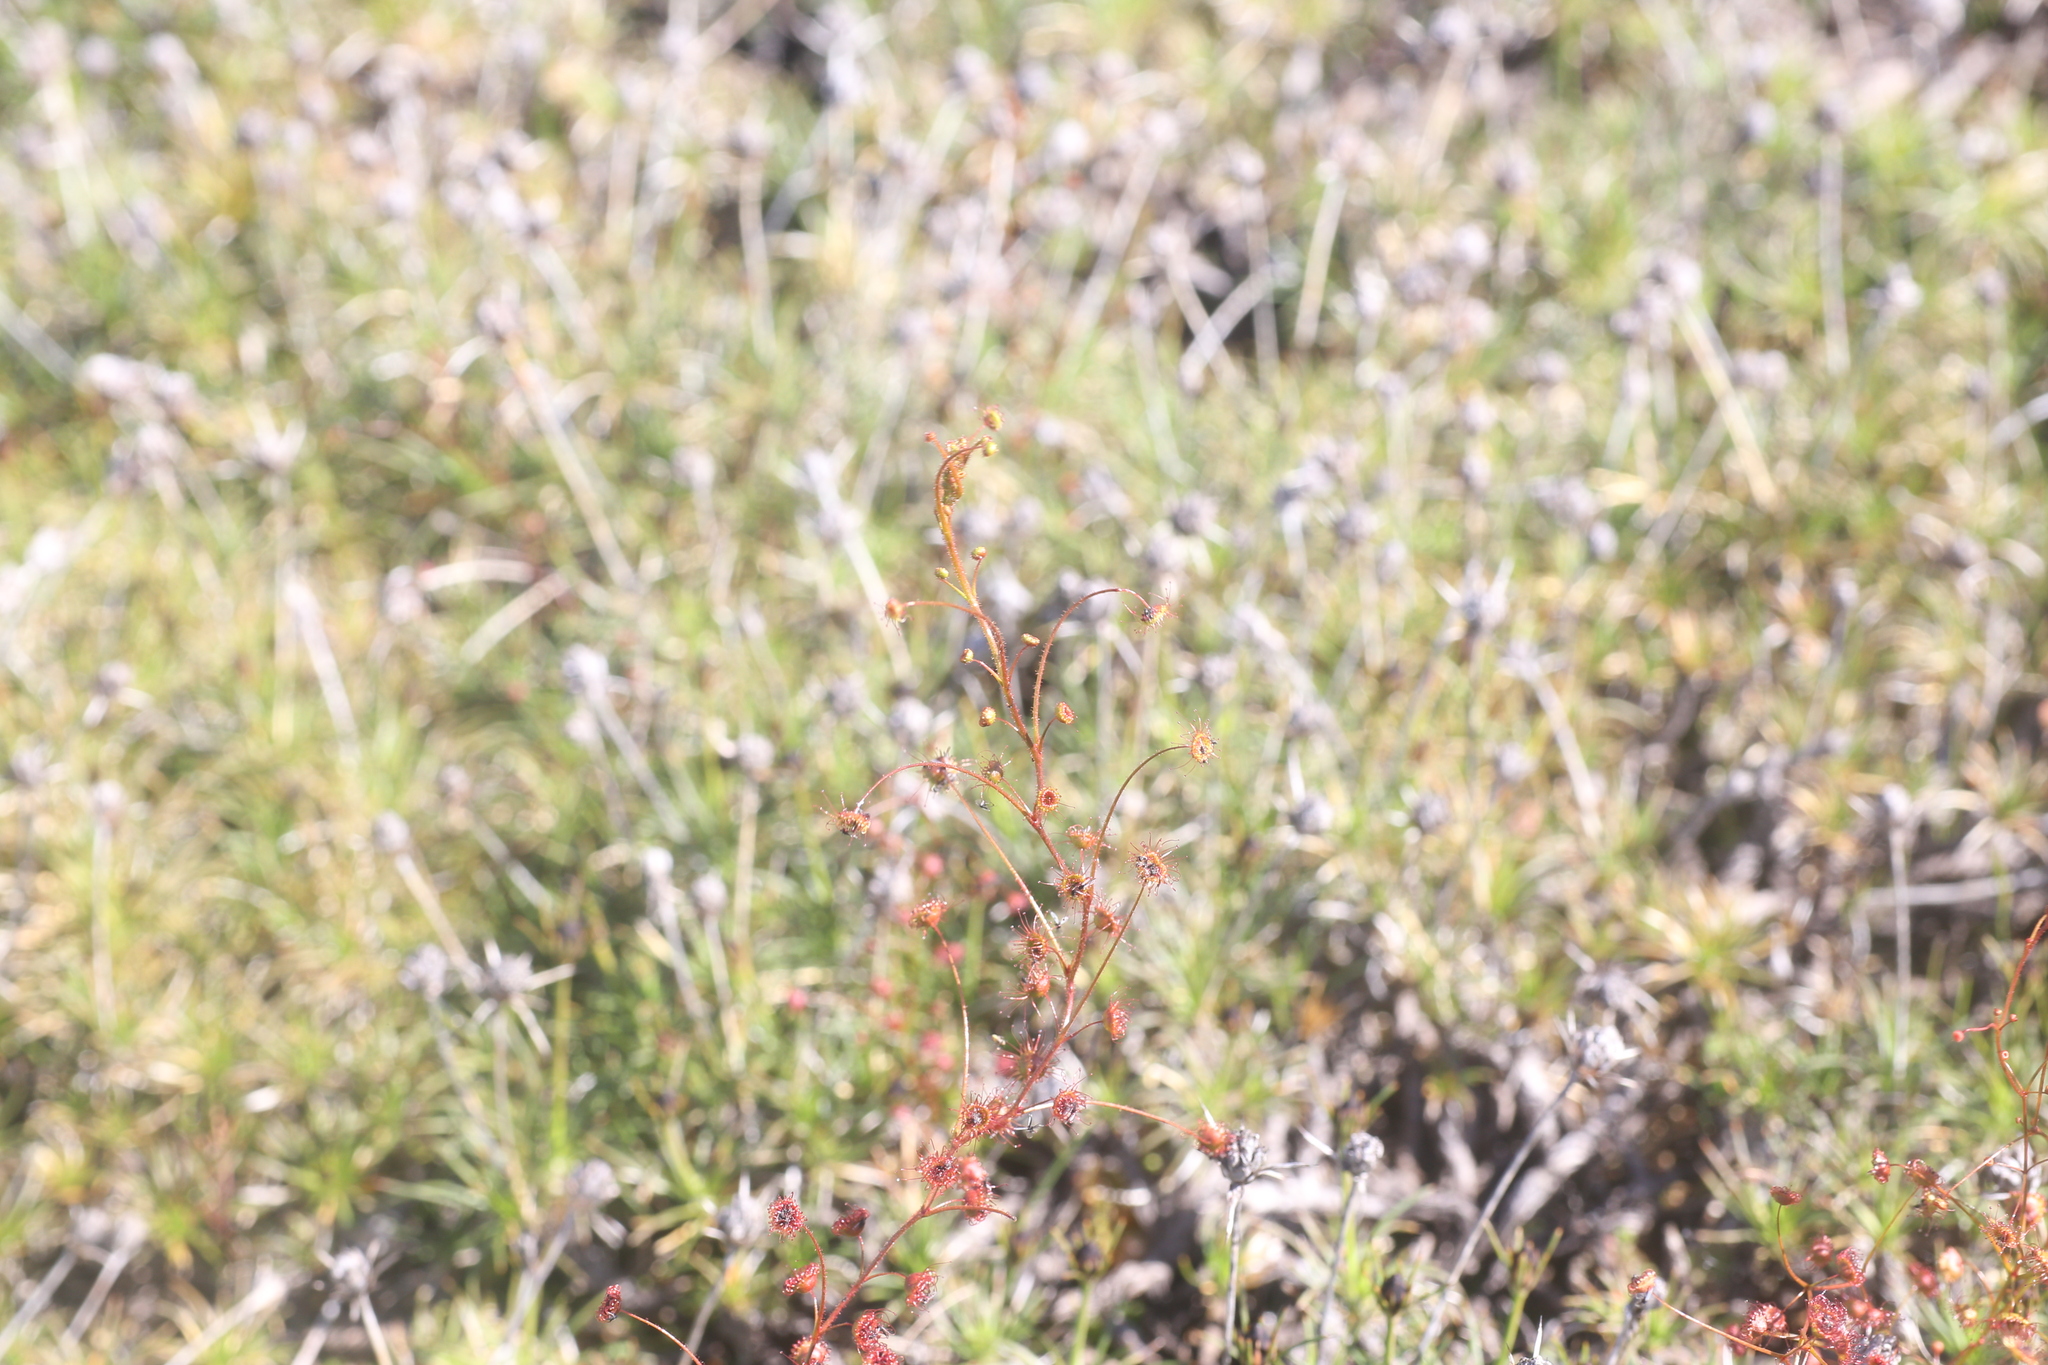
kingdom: Plantae
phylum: Tracheophyta
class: Magnoliopsida
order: Caryophyllales
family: Droseraceae
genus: Drosera
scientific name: Drosera subhirtella
